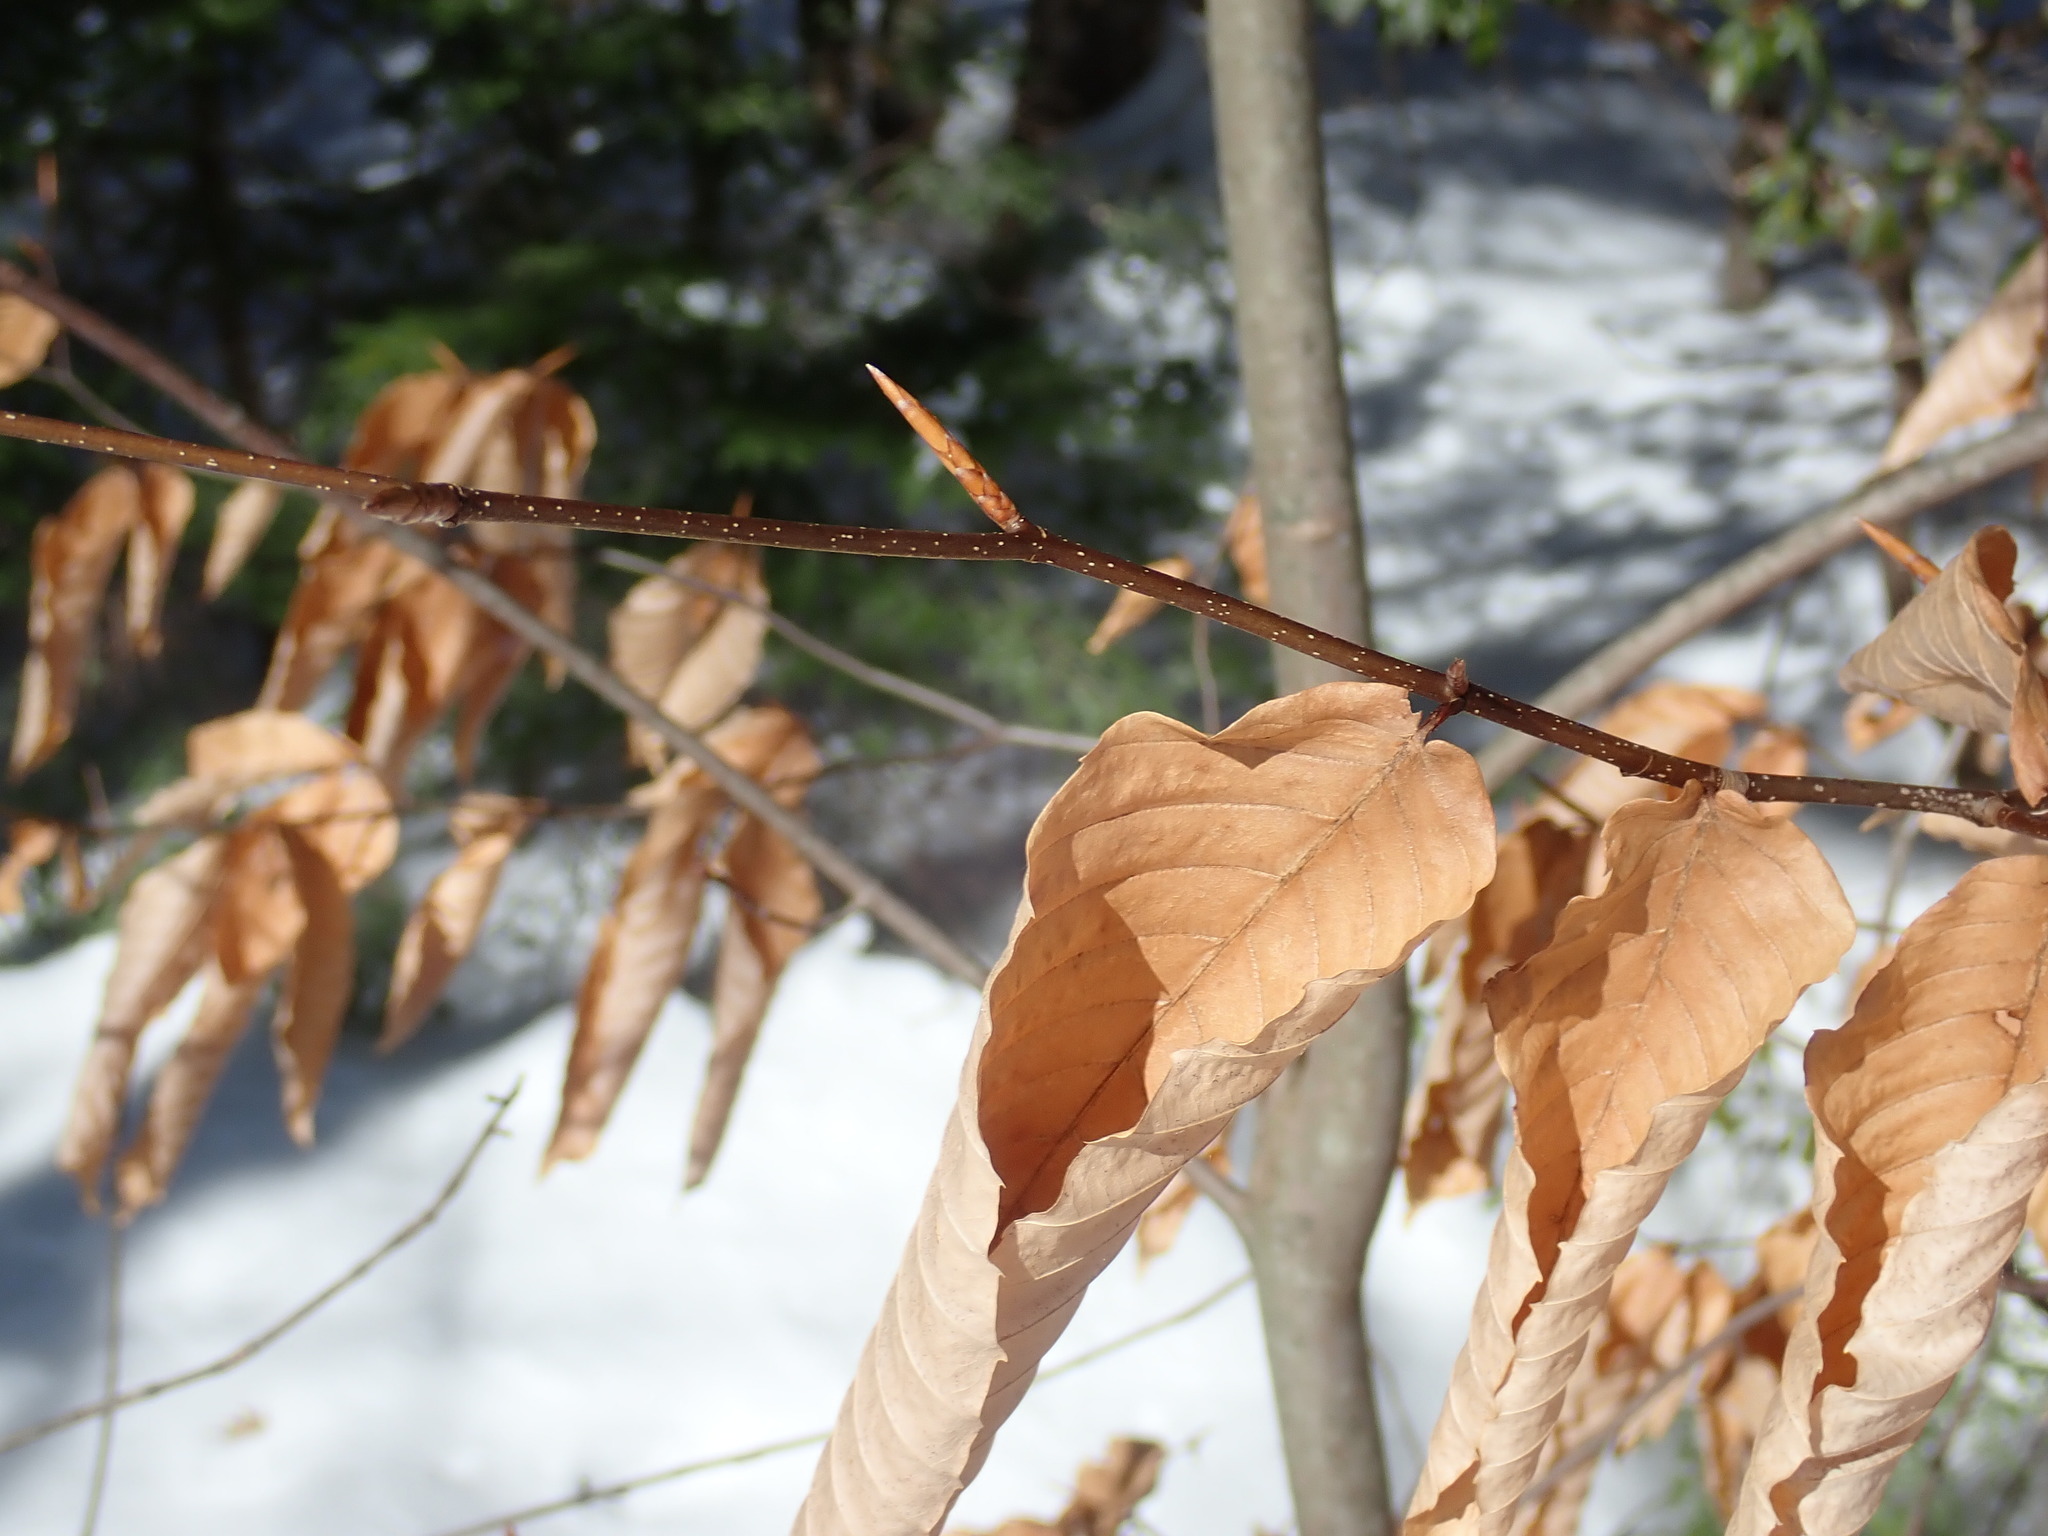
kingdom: Plantae
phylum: Tracheophyta
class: Magnoliopsida
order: Fagales
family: Fagaceae
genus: Fagus
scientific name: Fagus grandifolia
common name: American beech
